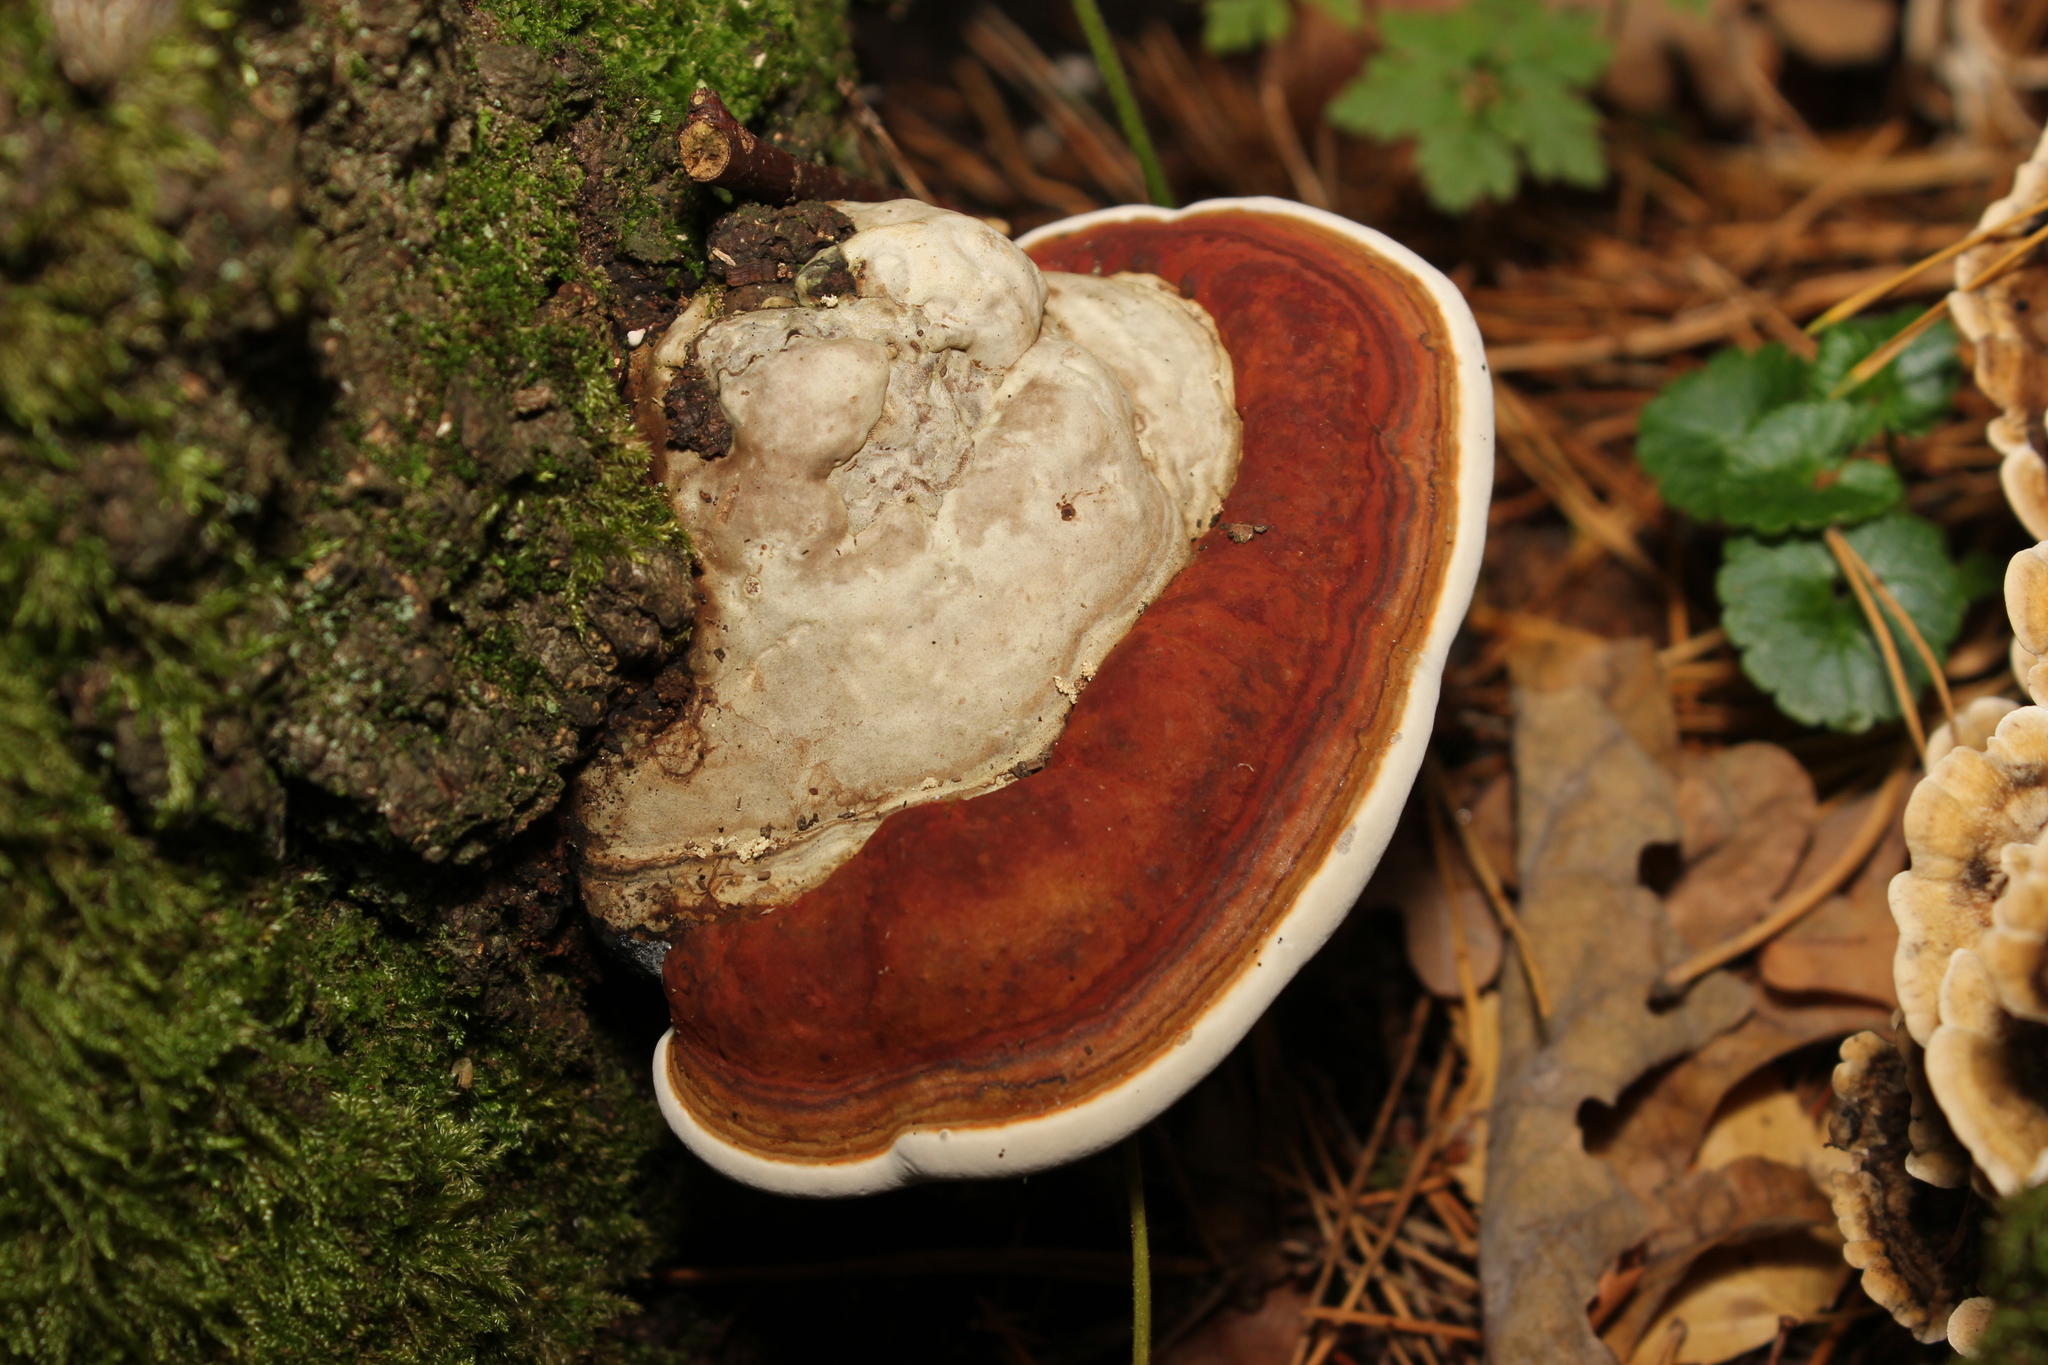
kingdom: Fungi
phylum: Basidiomycota
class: Agaricomycetes
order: Polyporales
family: Fomitopsidaceae
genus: Fomitopsis
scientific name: Fomitopsis pinicola
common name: Red-belted bracket
